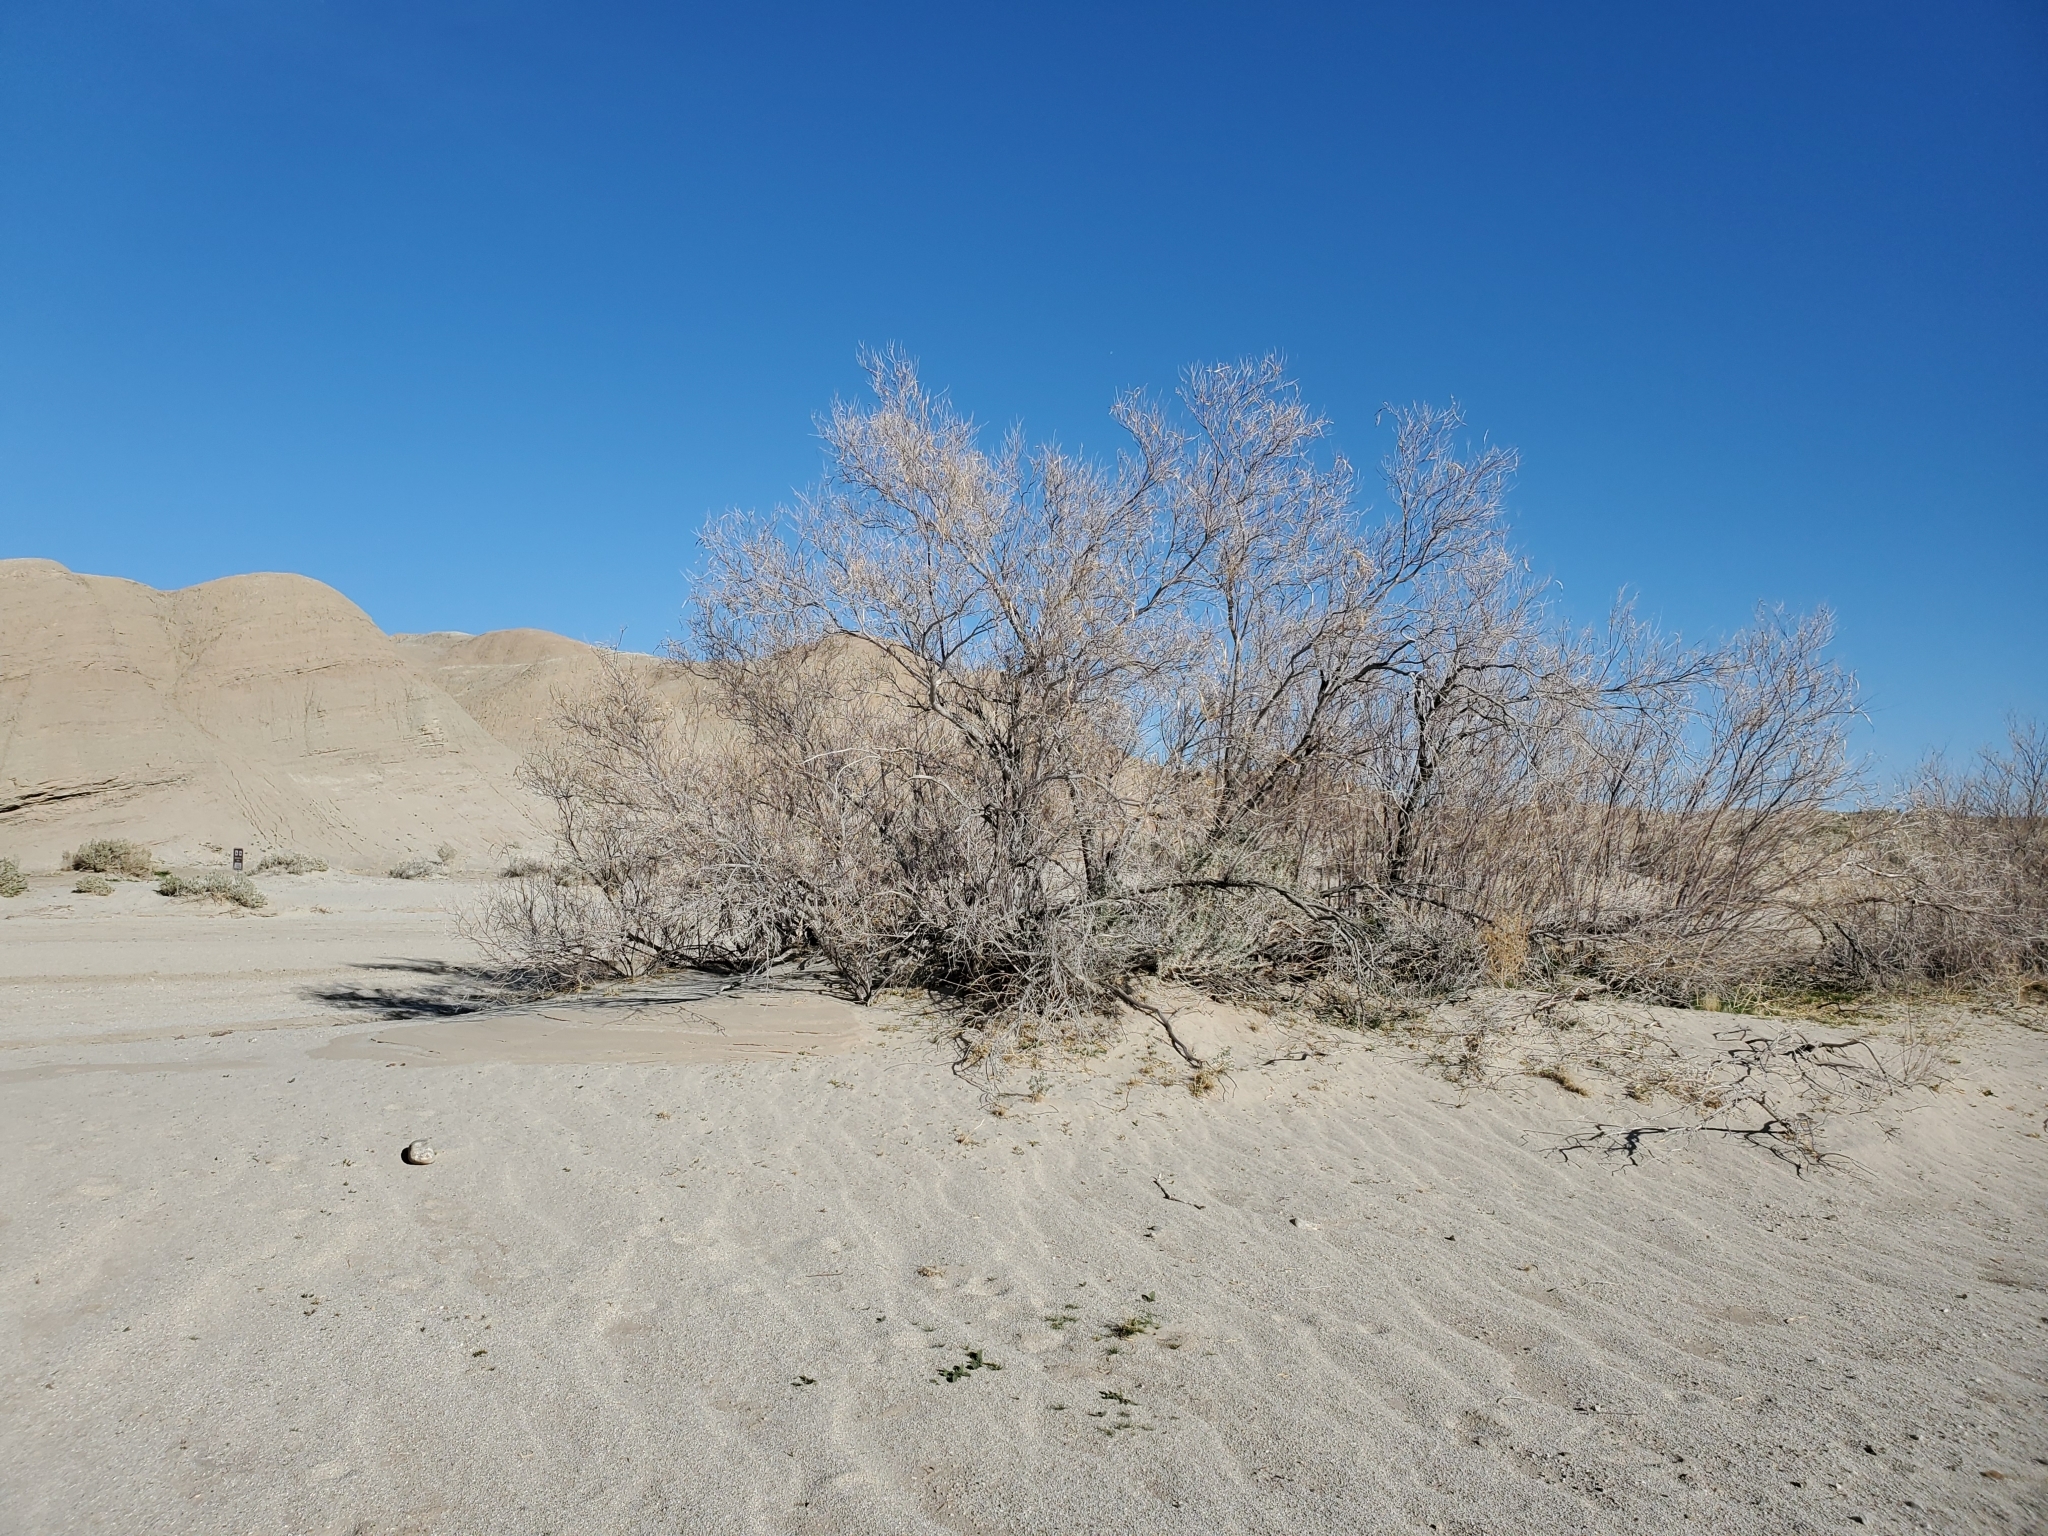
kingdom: Plantae
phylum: Tracheophyta
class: Magnoliopsida
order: Lamiales
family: Bignoniaceae
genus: Chilopsis
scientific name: Chilopsis linearis
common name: Desert-willow
